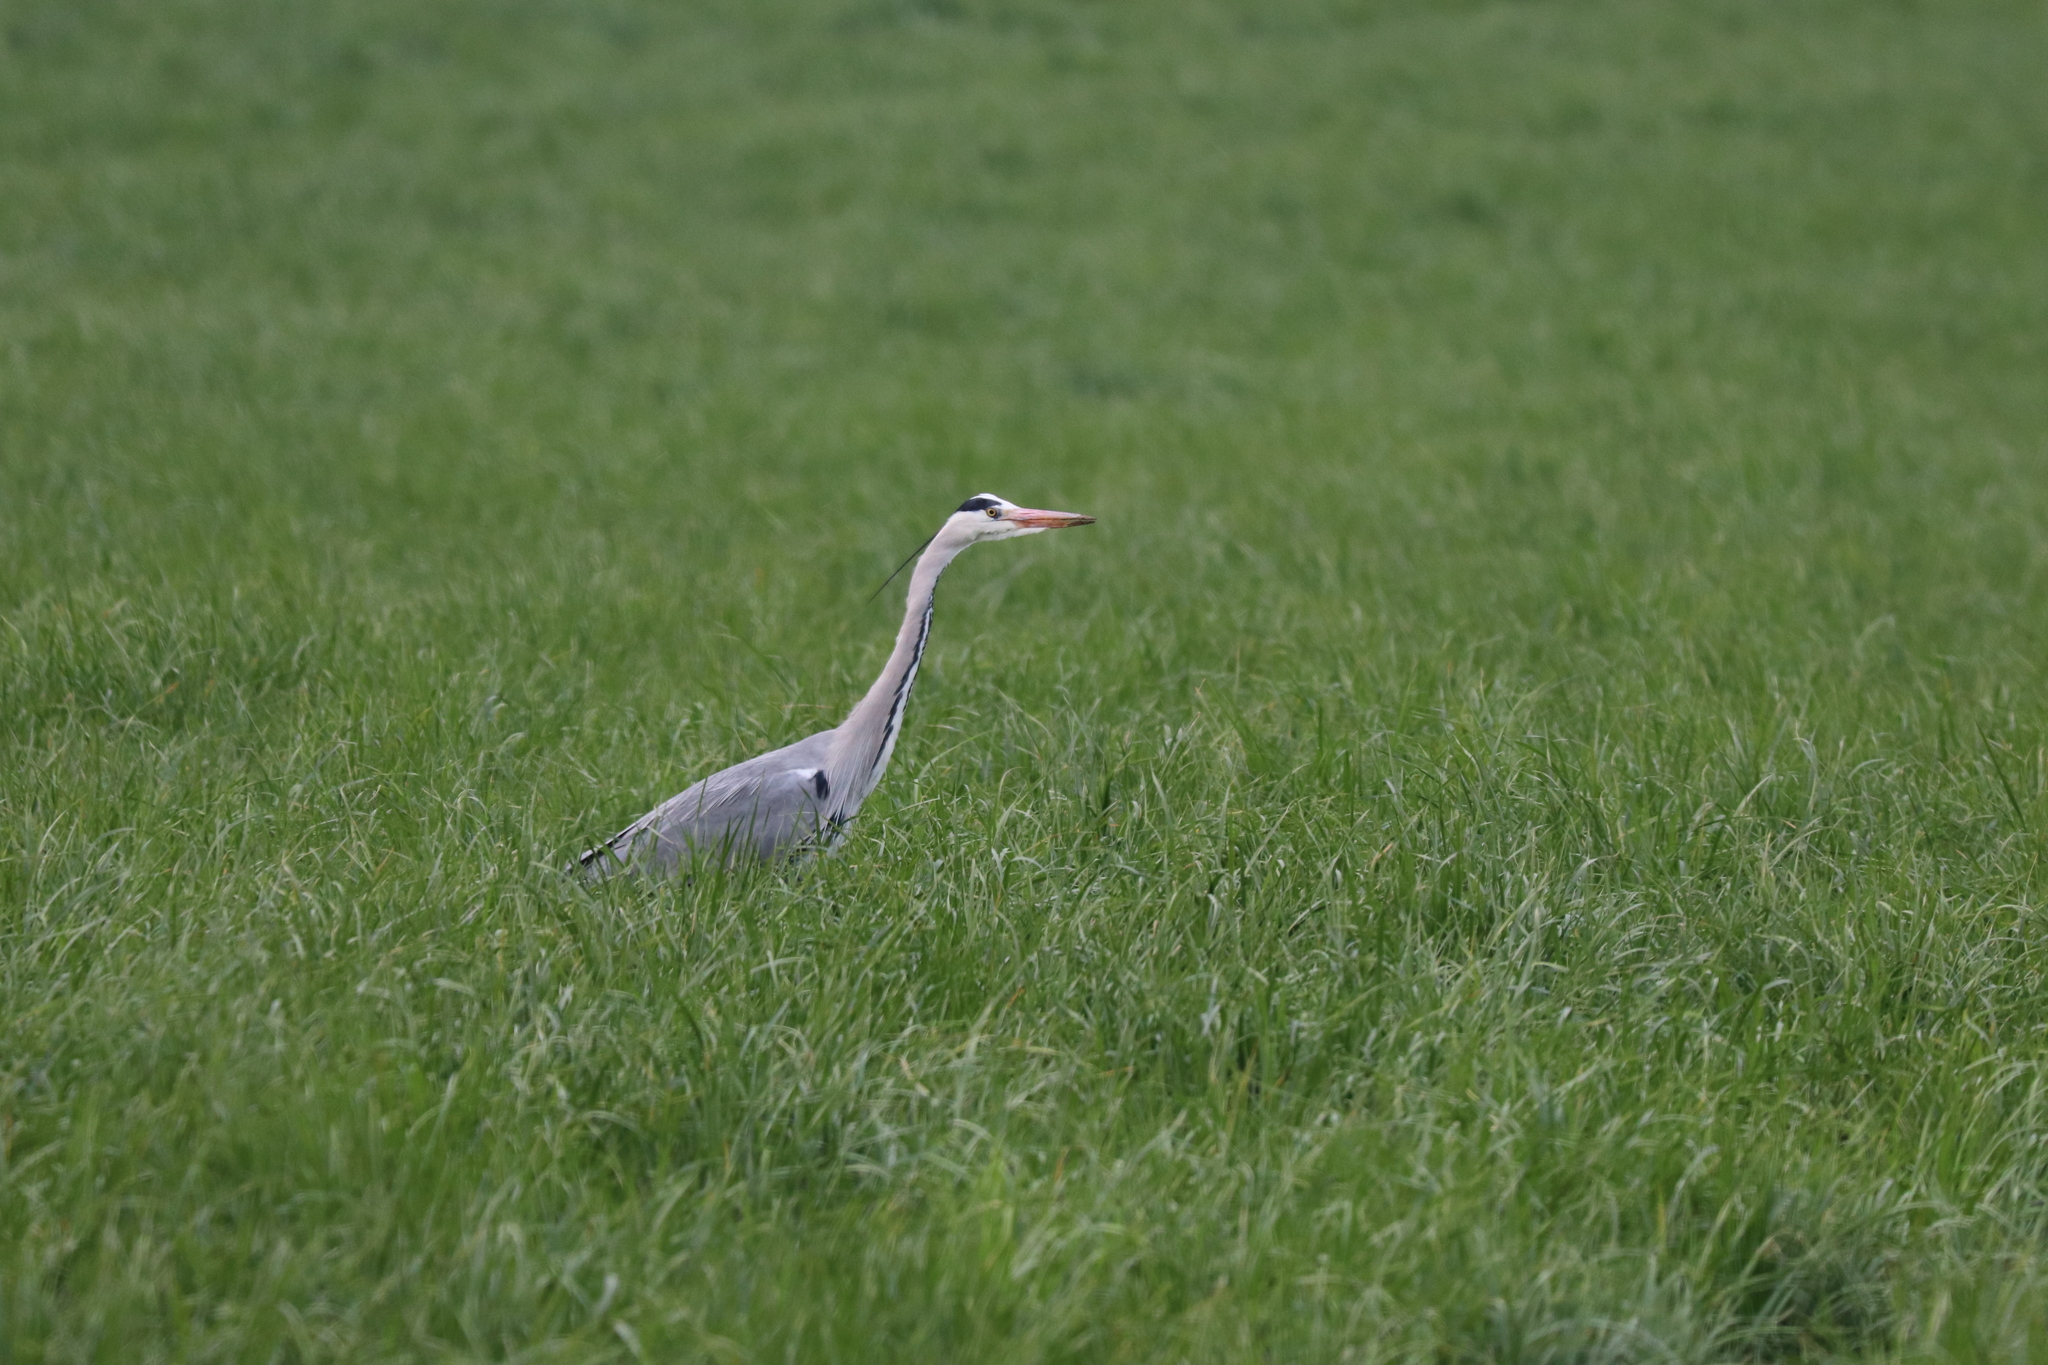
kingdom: Animalia
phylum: Chordata
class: Aves
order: Pelecaniformes
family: Ardeidae
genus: Ardea
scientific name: Ardea cinerea
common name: Grey heron
